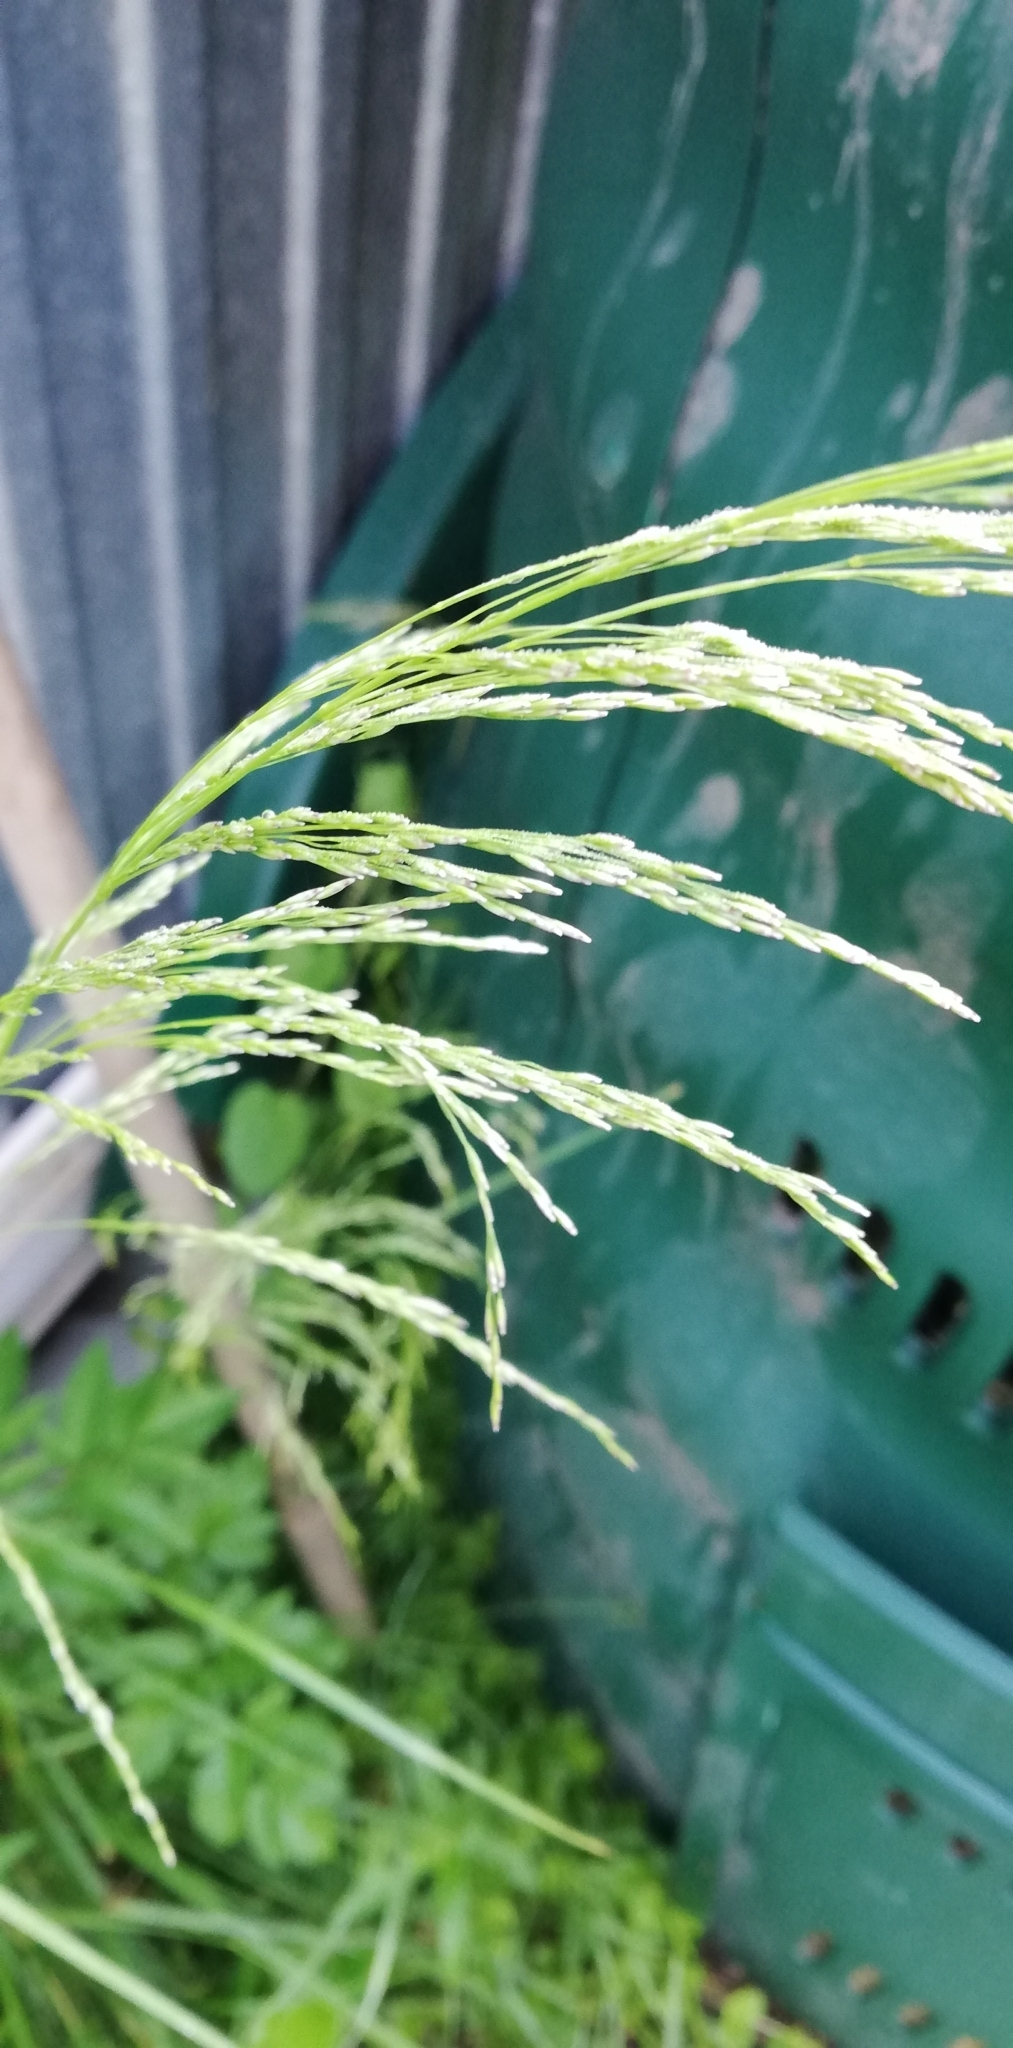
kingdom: Plantae
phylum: Tracheophyta
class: Liliopsida
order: Poales
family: Poaceae
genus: Deschampsia
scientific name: Deschampsia cespitosa
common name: Tufted hair-grass
